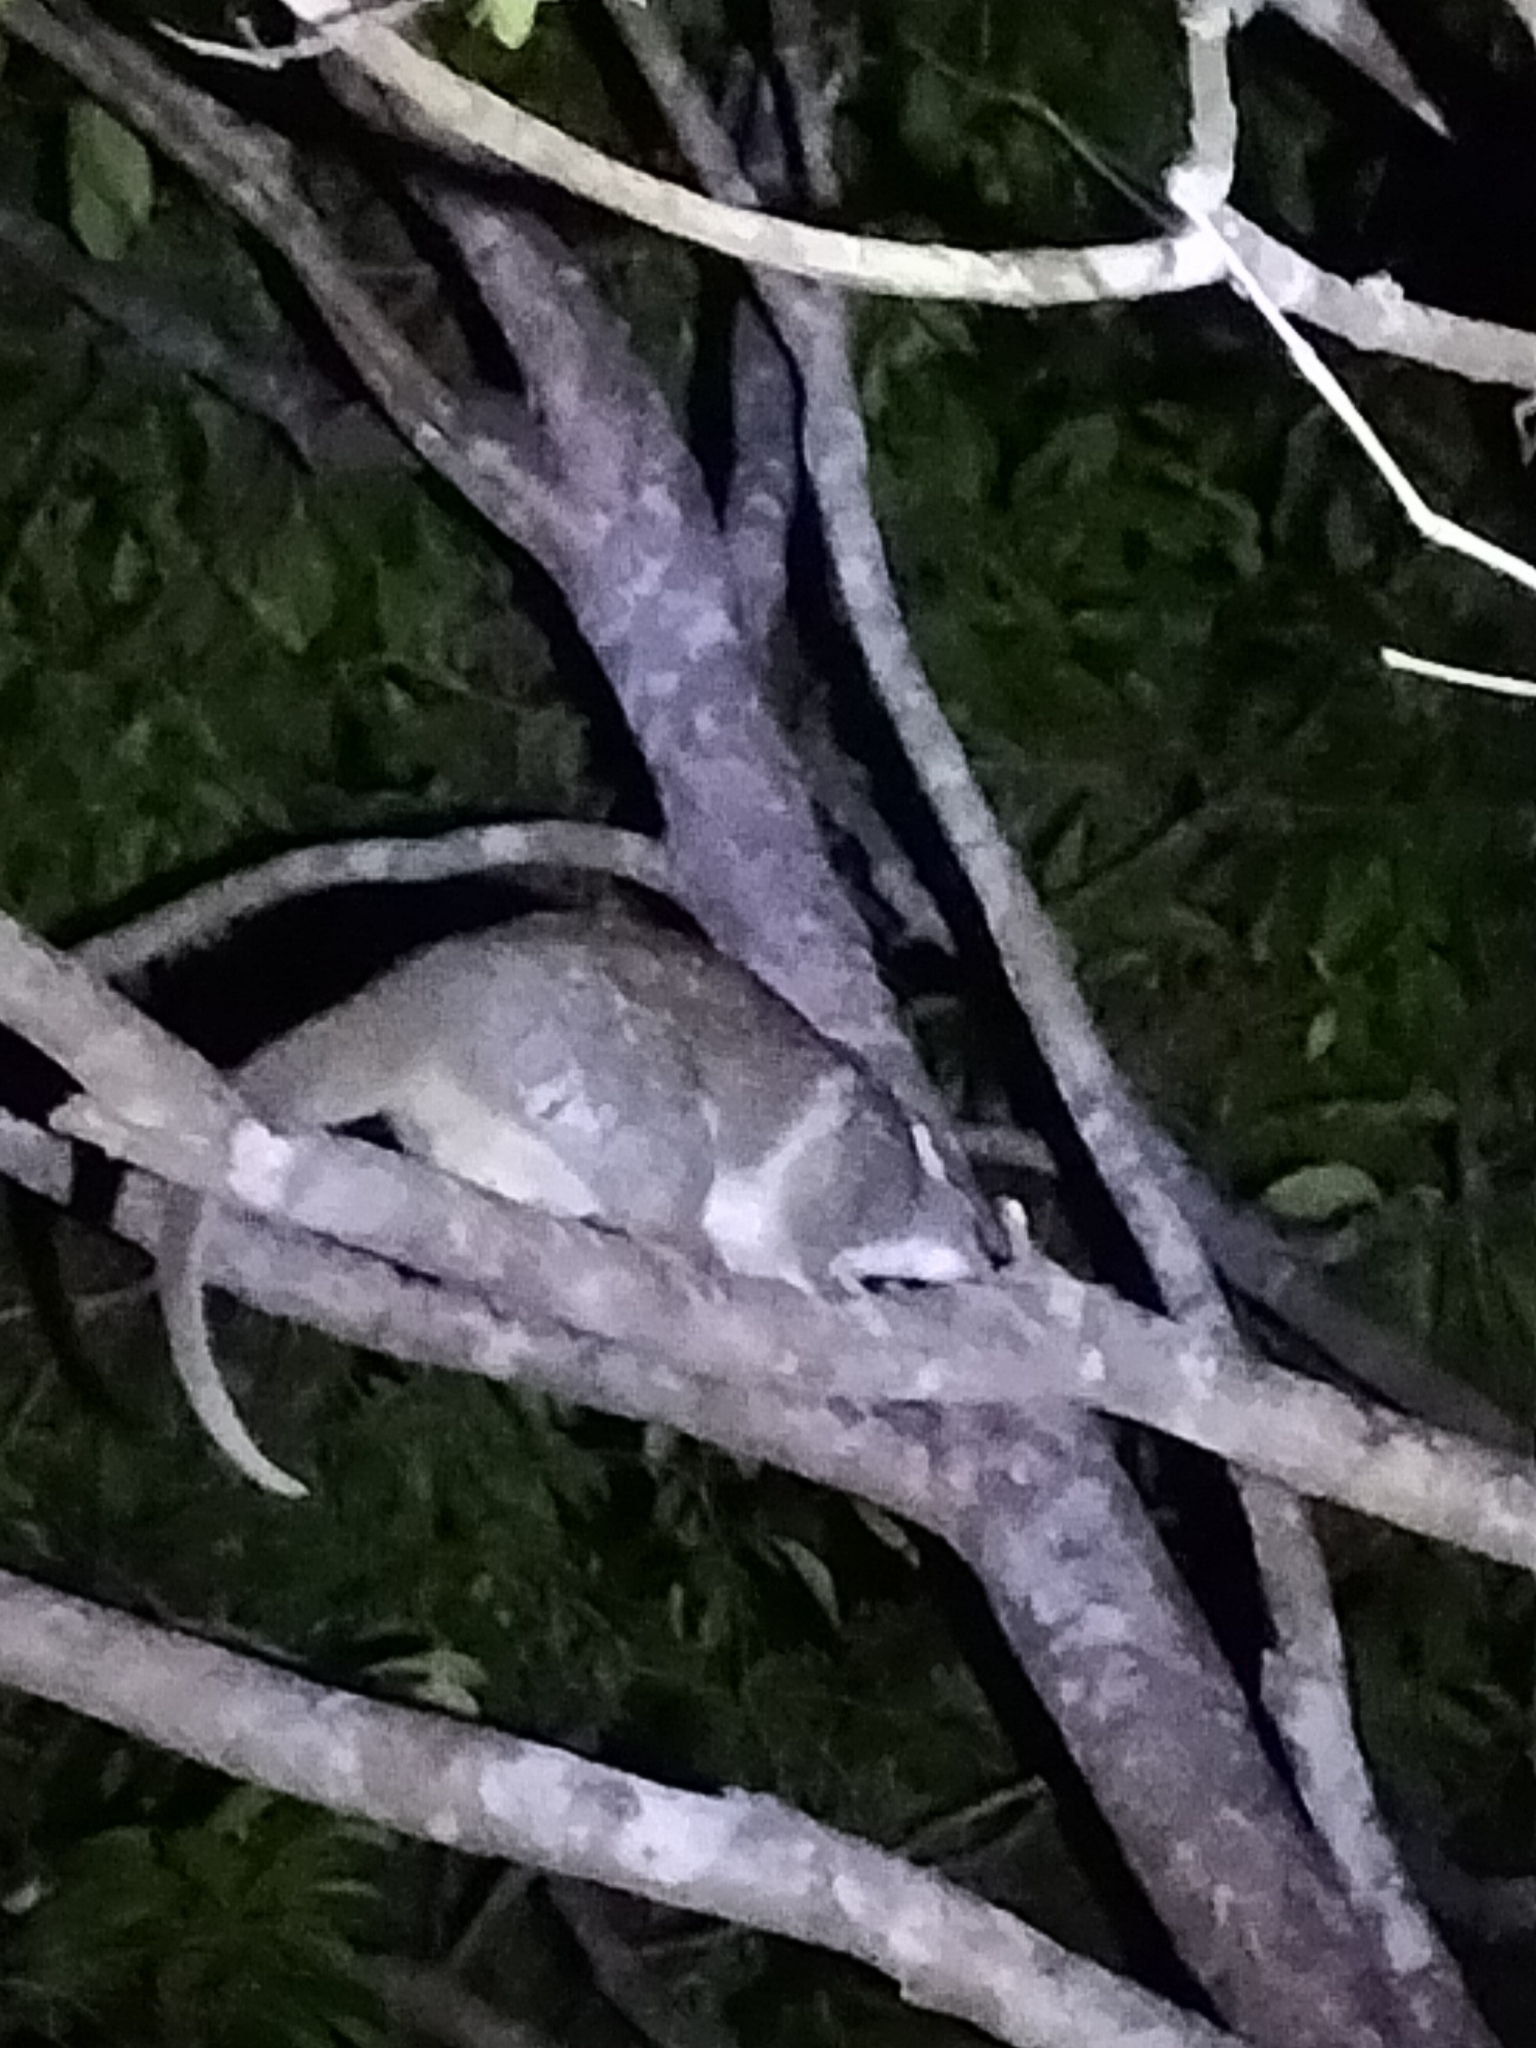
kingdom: Animalia
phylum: Chordata
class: Mammalia
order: Diprotodontia
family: Pseudocheiridae
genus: Pseudochirops
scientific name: Pseudochirops archeri
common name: Green ringtail
